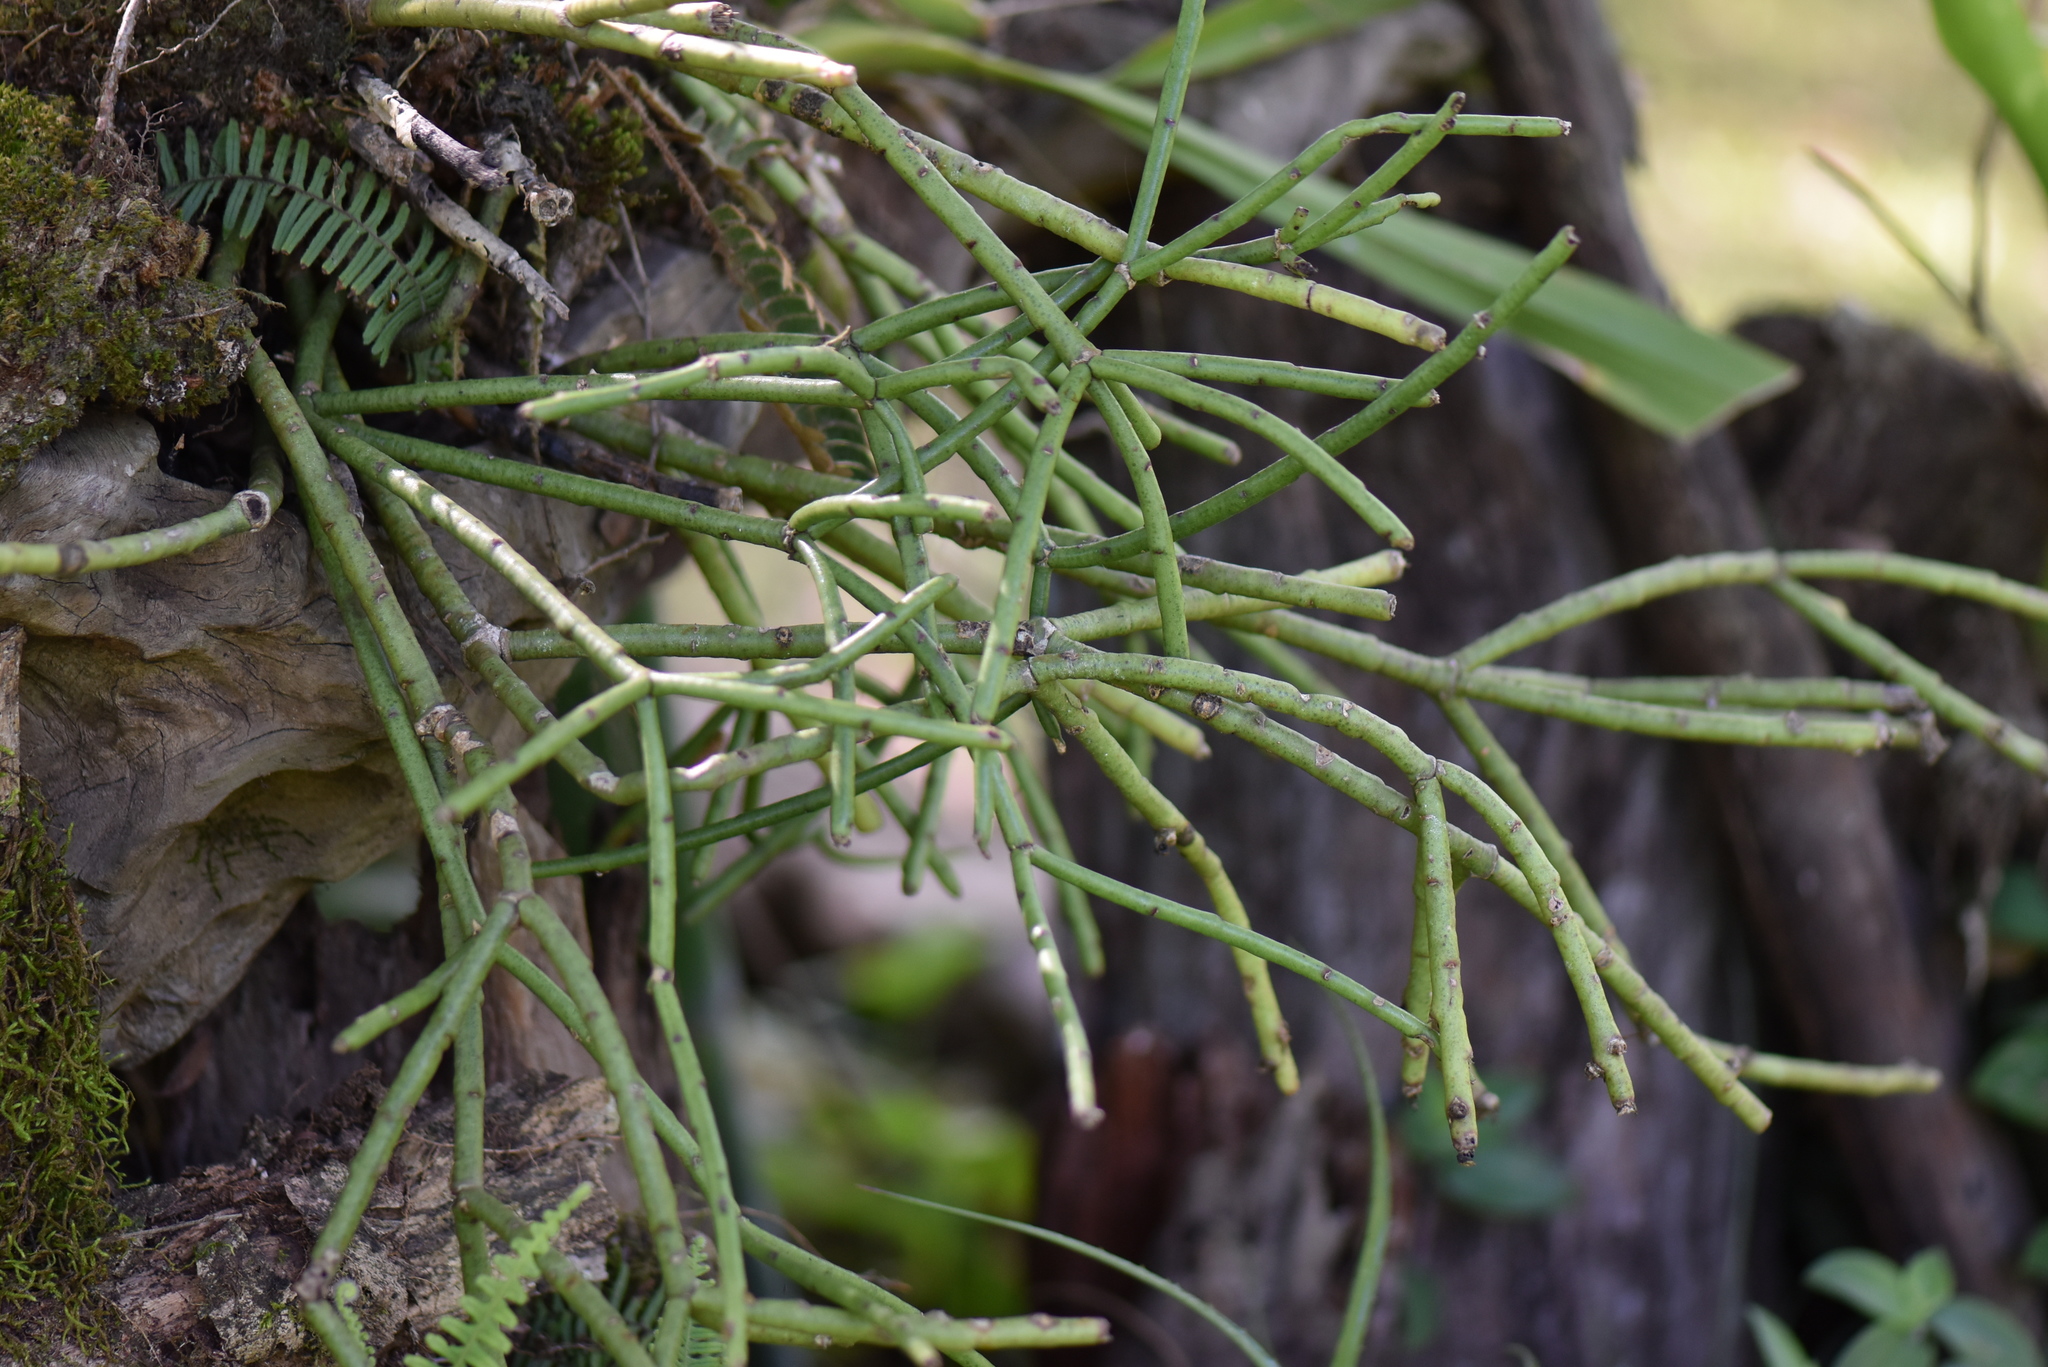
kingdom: Plantae
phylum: Tracheophyta
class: Magnoliopsida
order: Caryophyllales
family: Cactaceae
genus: Rhipsalis
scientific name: Rhipsalis floccosa
